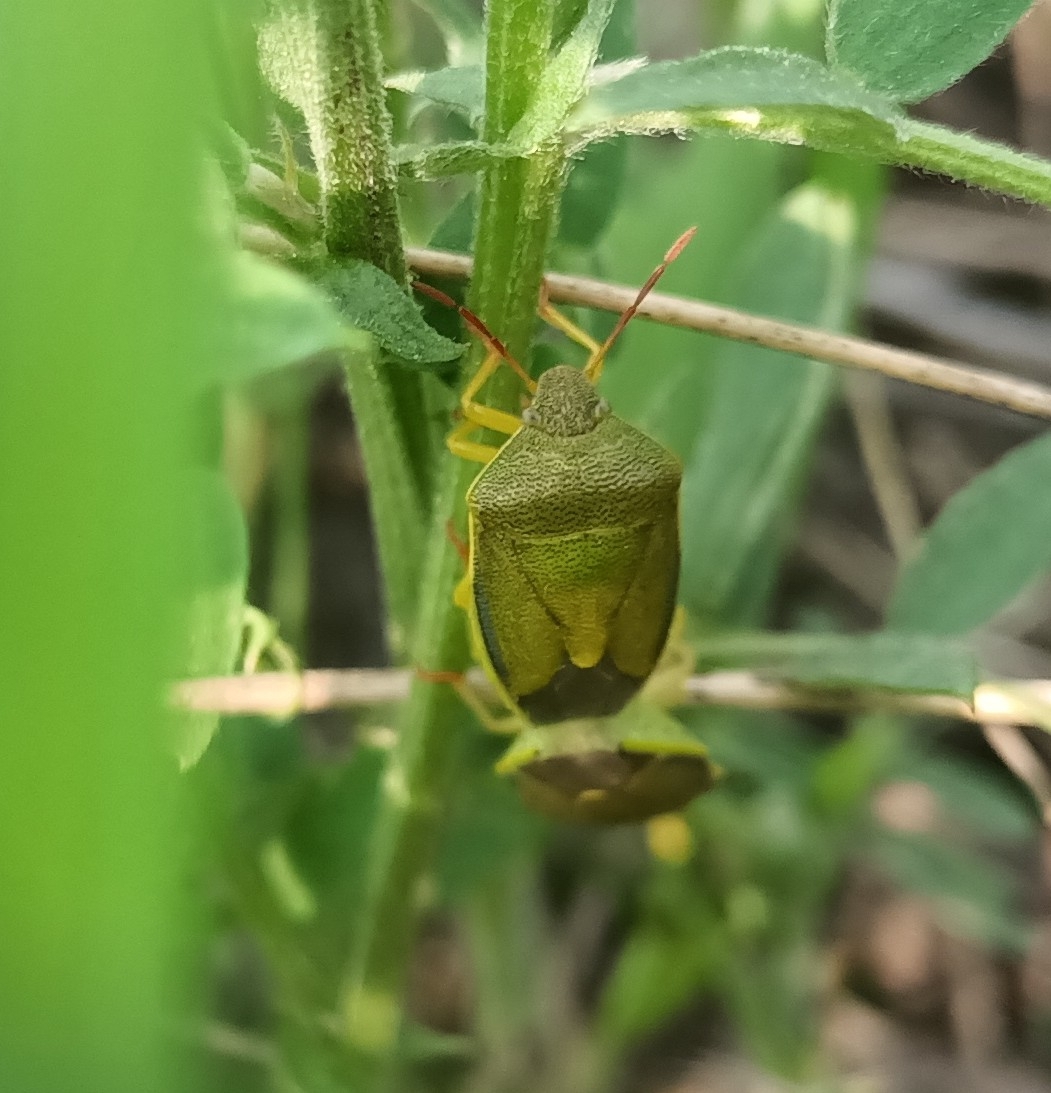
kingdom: Animalia
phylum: Arthropoda
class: Insecta
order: Hemiptera
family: Pentatomidae
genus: Piezodorus
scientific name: Piezodorus lituratus
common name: Stink bug
